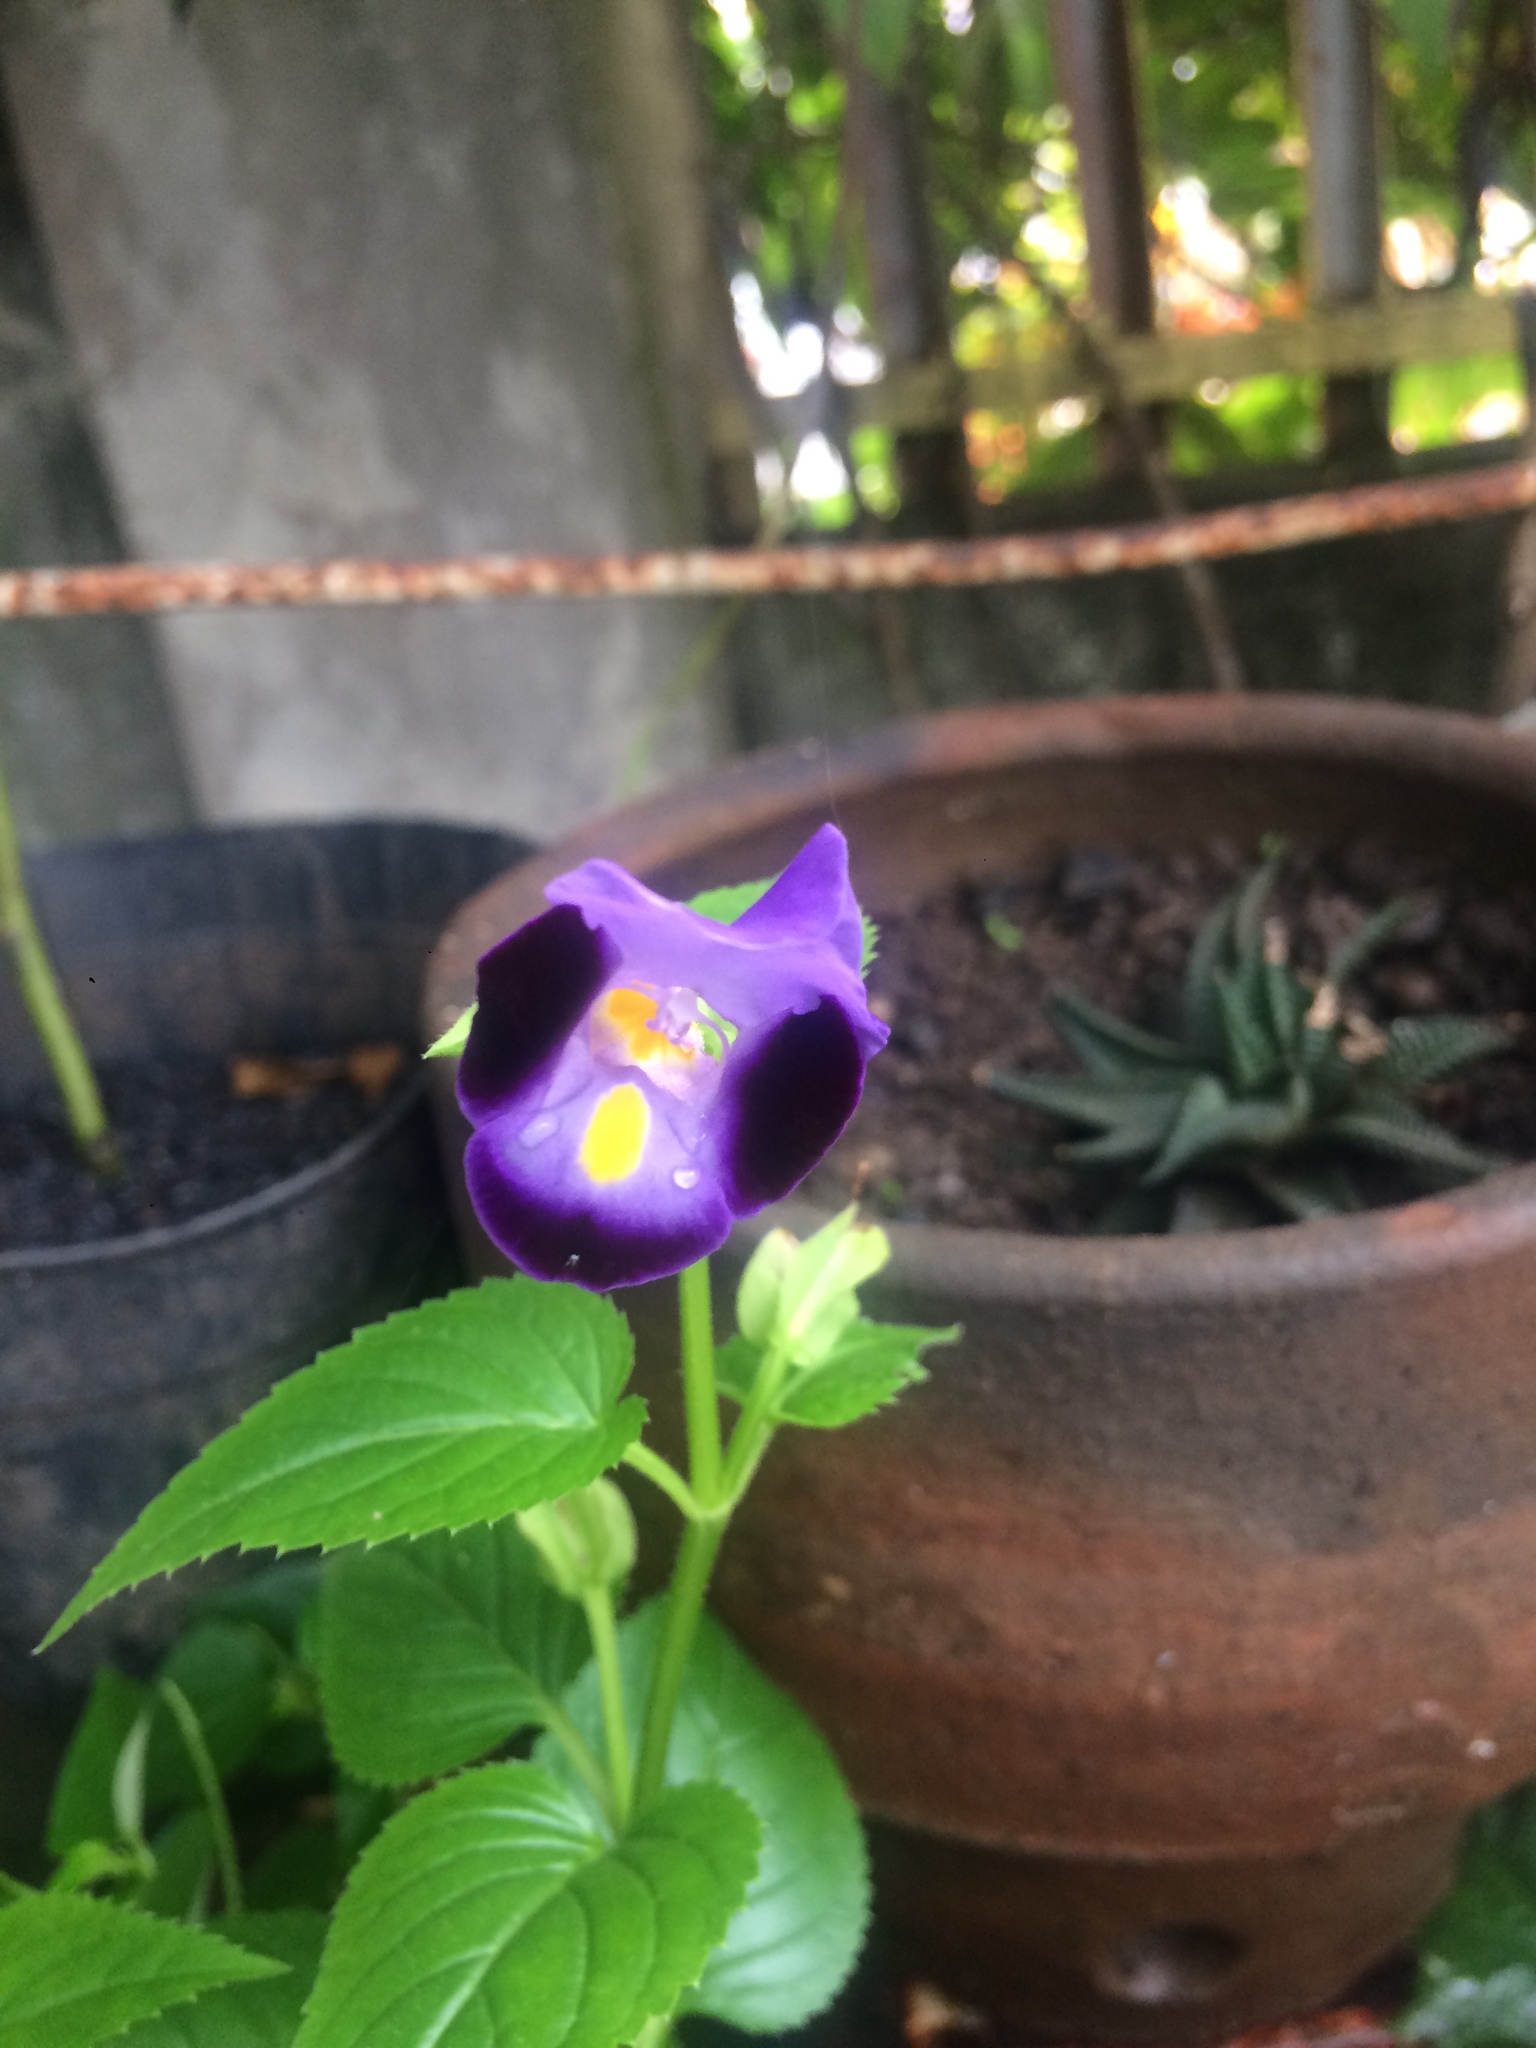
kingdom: Plantae
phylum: Tracheophyta
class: Magnoliopsida
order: Lamiales
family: Linderniaceae
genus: Torenia
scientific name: Torenia fournieri
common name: Bluewings
